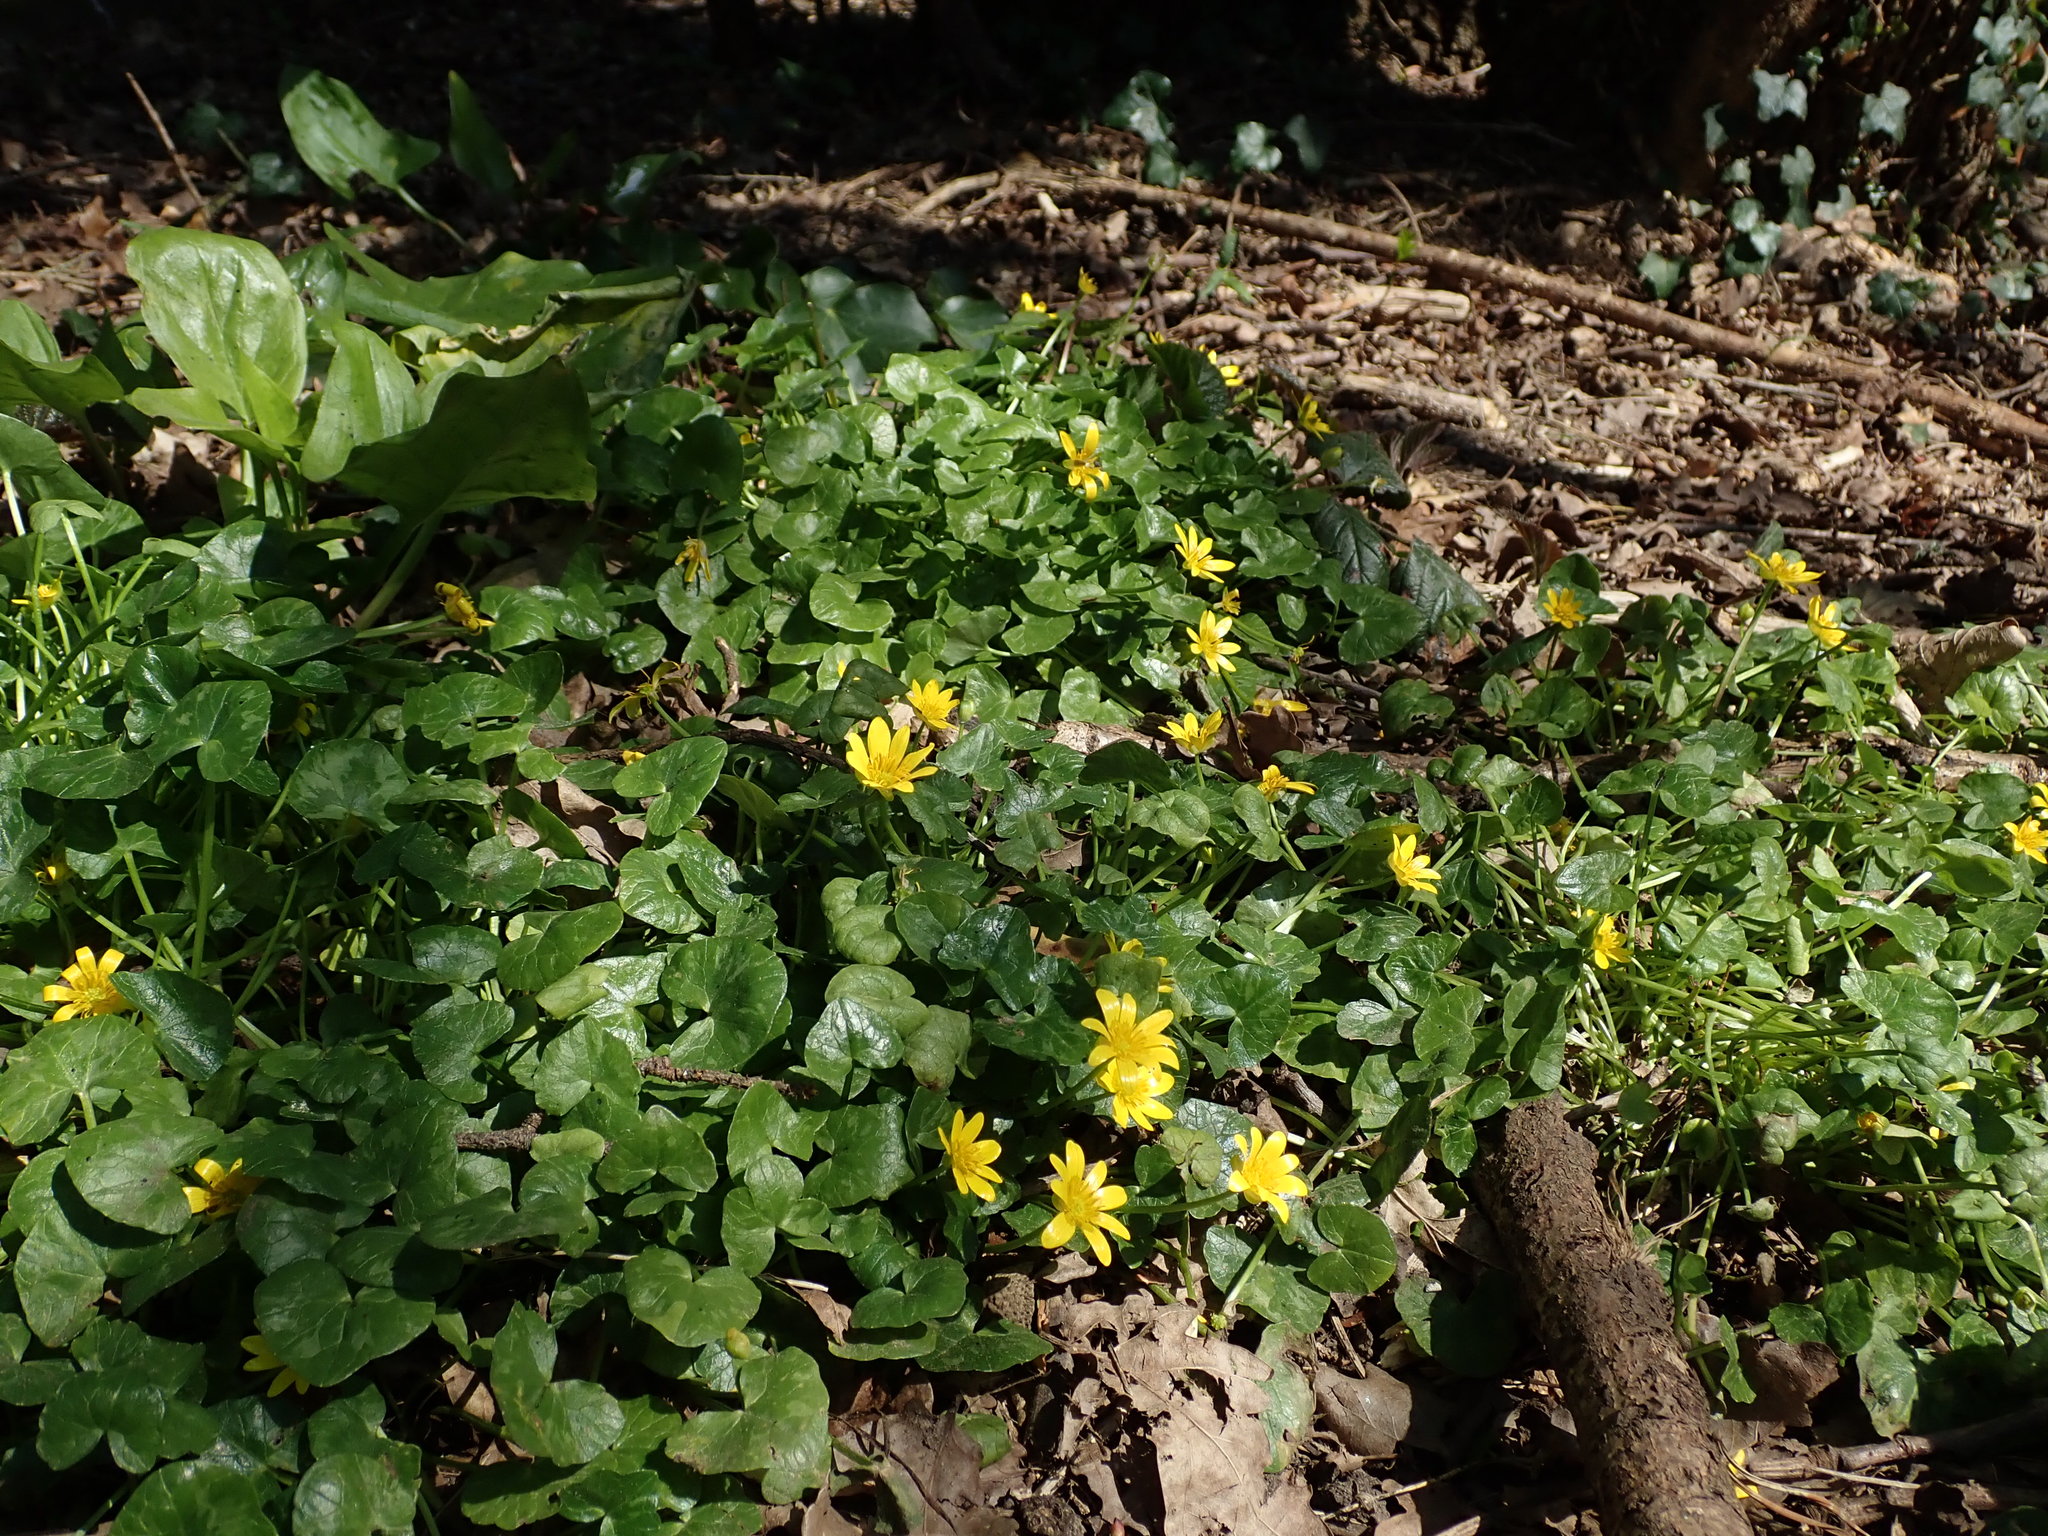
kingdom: Plantae
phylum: Tracheophyta
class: Magnoliopsida
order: Ranunculales
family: Ranunculaceae
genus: Ficaria
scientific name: Ficaria verna
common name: Lesser celandine
